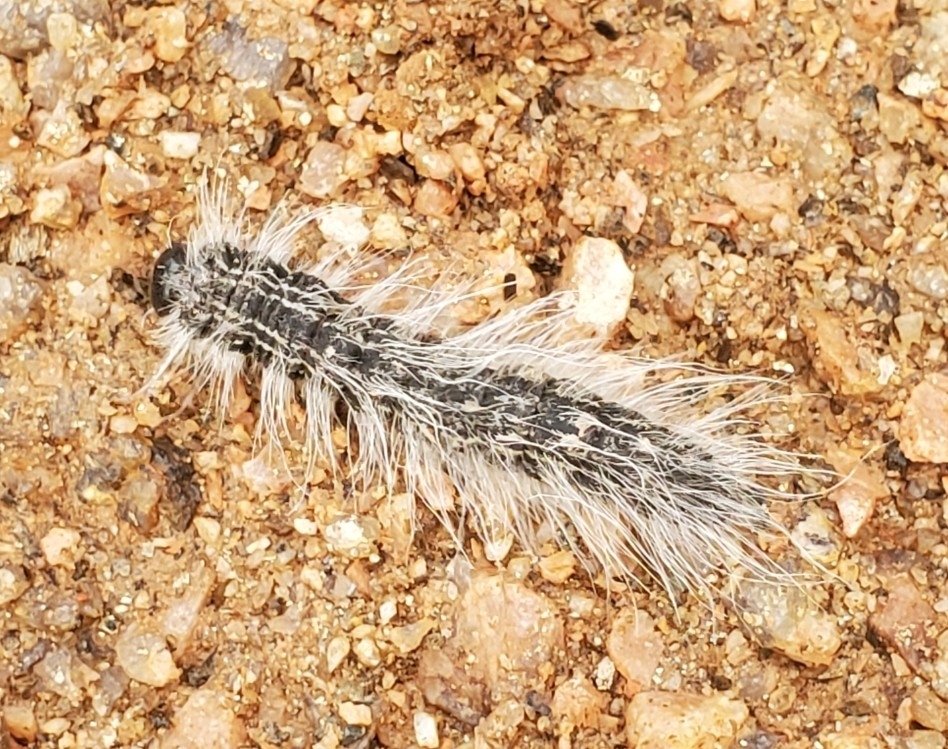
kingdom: Animalia
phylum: Arthropoda
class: Insecta
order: Lepidoptera
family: Notodontidae
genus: Datana
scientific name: Datana integerrima
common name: Walnut caterpillar
